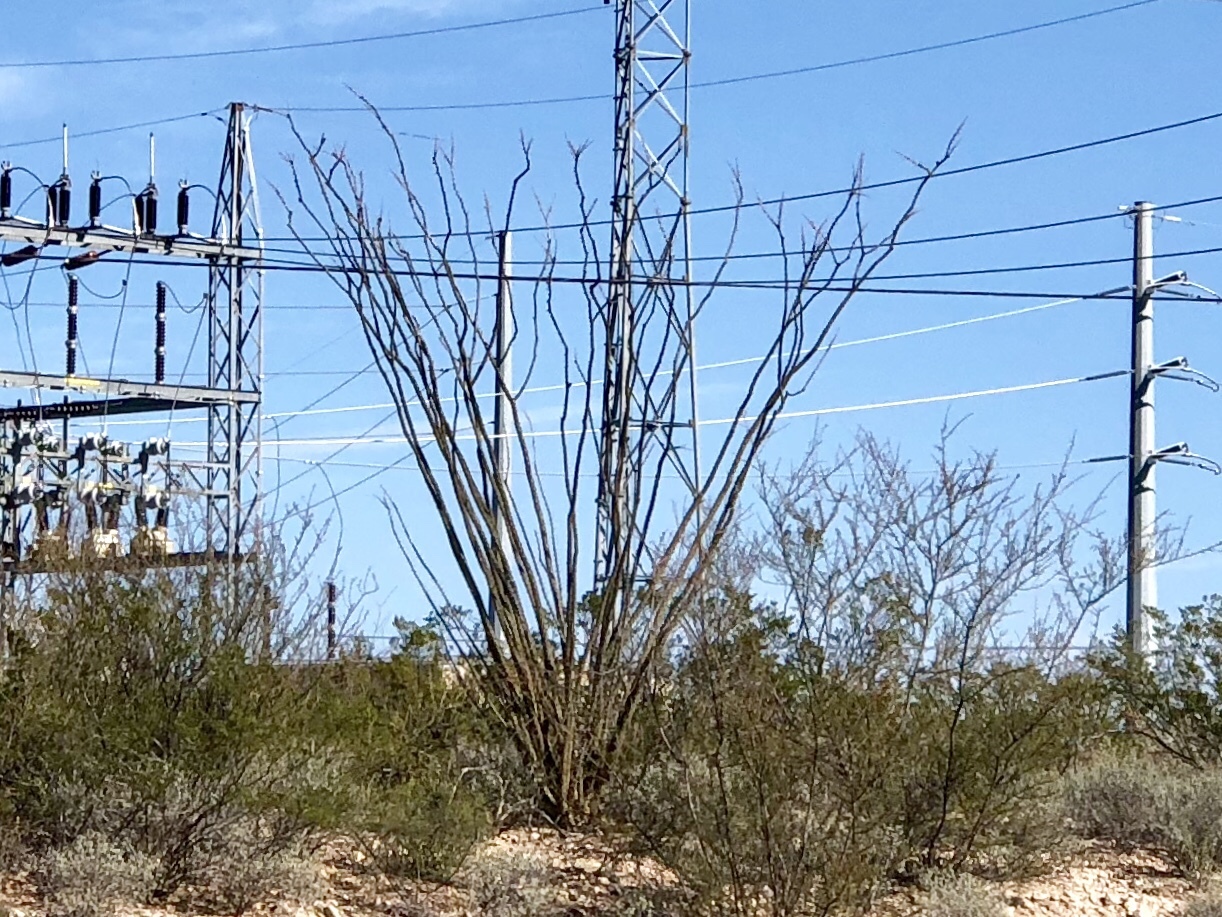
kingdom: Plantae
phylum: Tracheophyta
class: Magnoliopsida
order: Ericales
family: Fouquieriaceae
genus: Fouquieria
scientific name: Fouquieria splendens
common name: Vine-cactus
